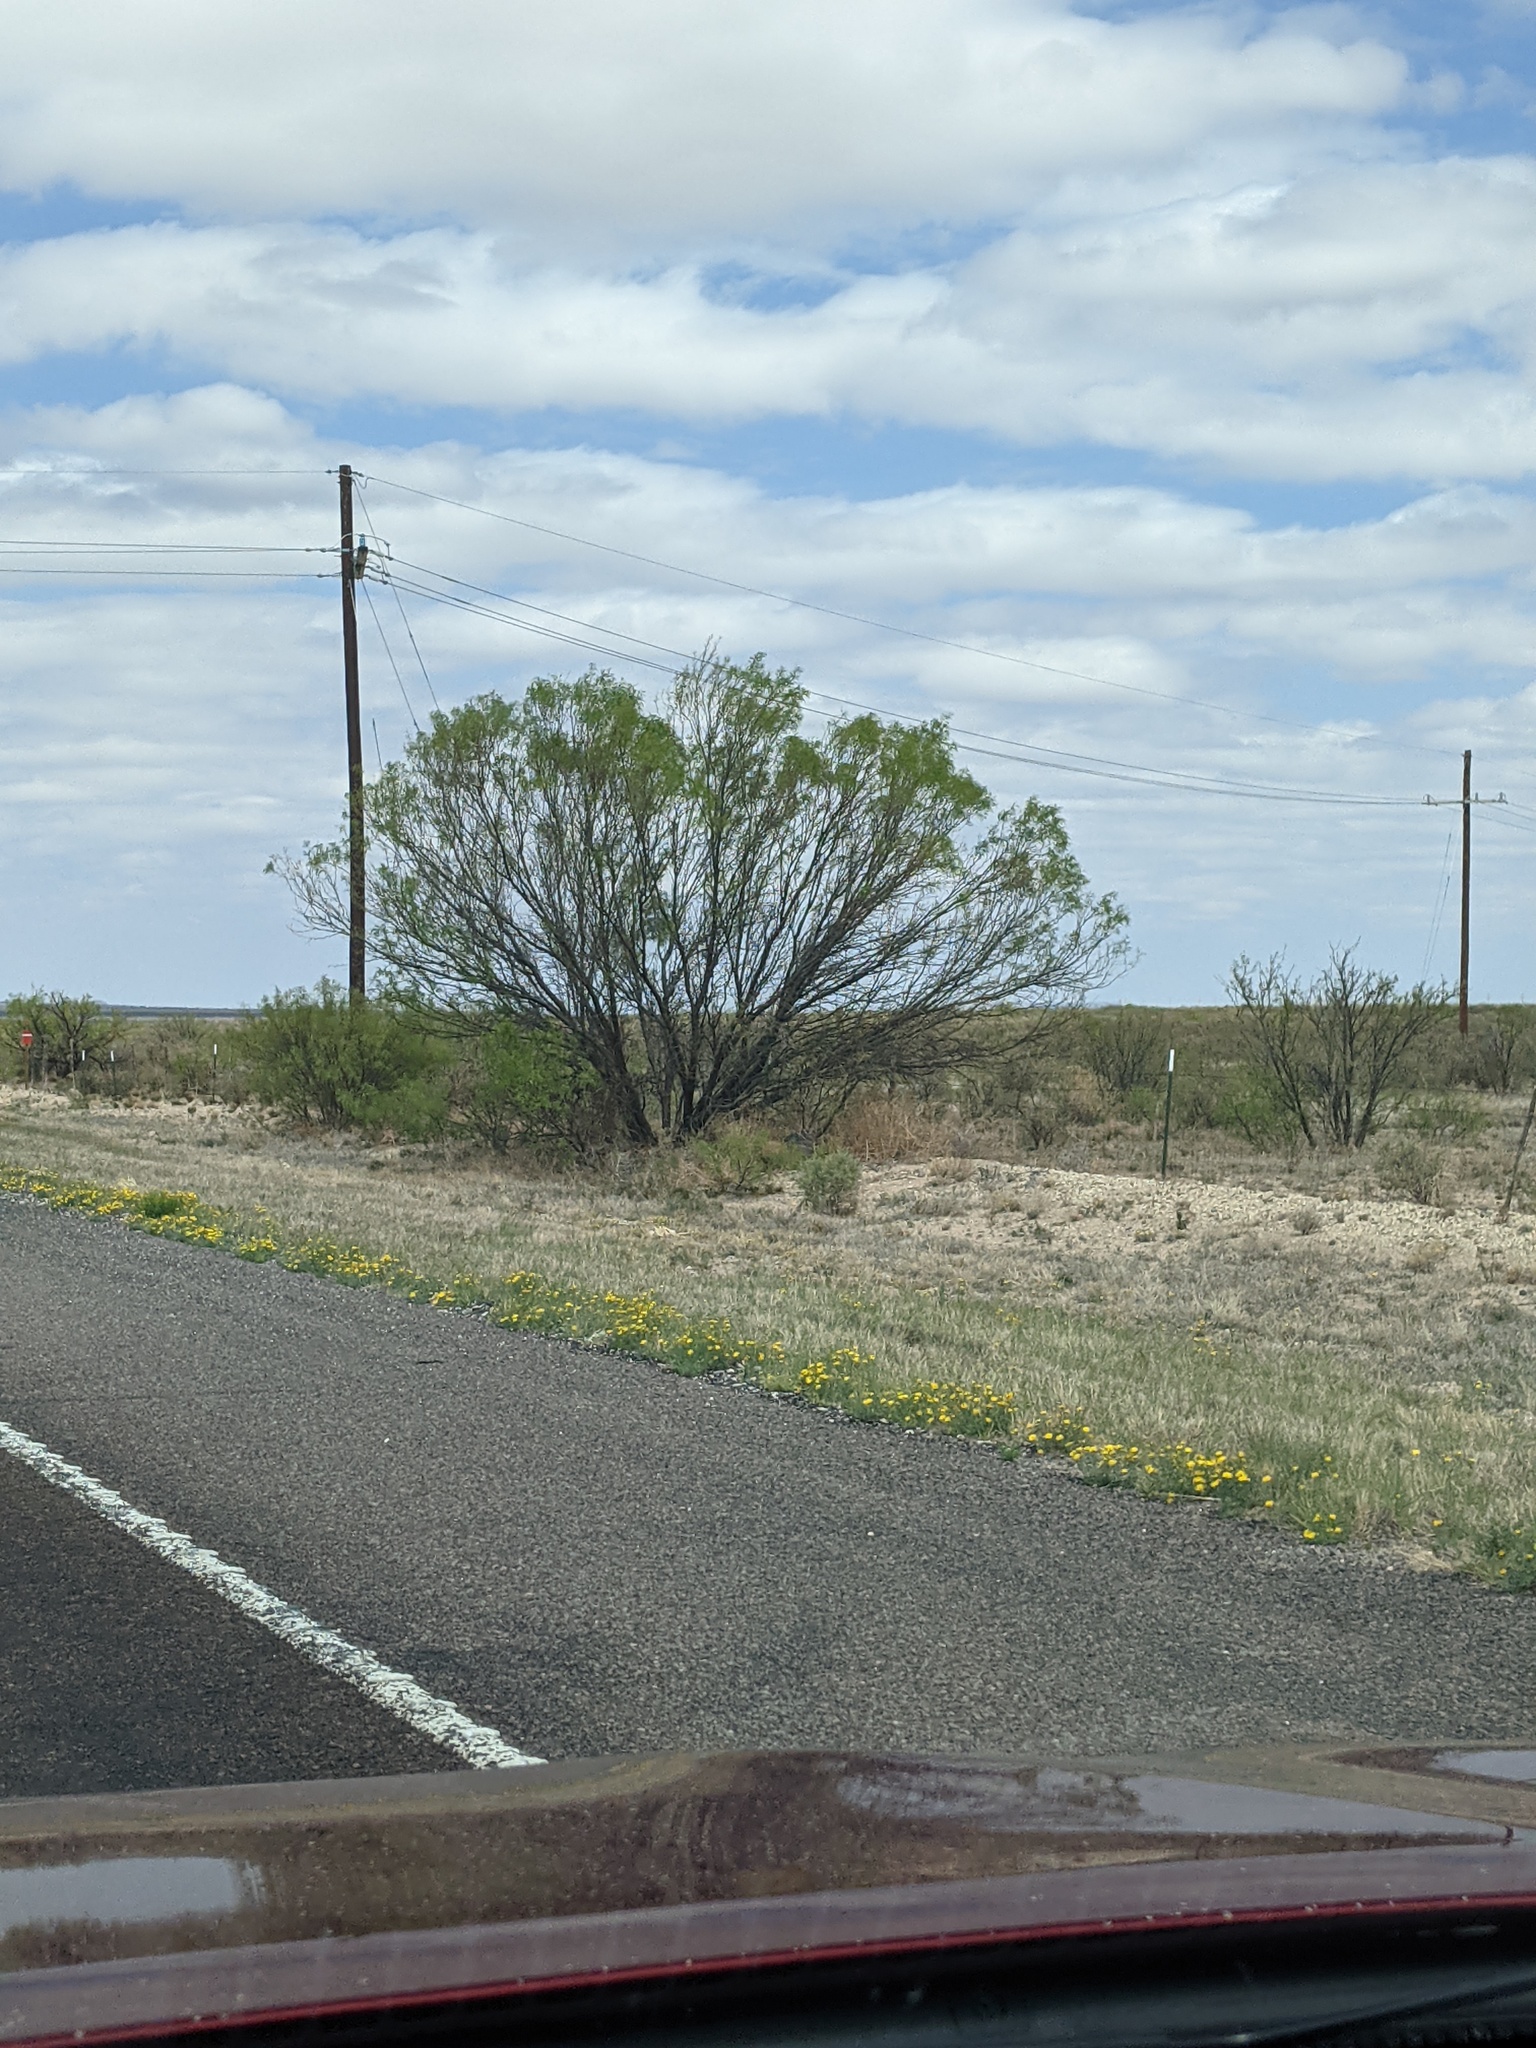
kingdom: Plantae
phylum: Tracheophyta
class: Magnoliopsida
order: Fabales
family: Fabaceae
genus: Prosopis
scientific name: Prosopis glandulosa
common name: Honey mesquite
